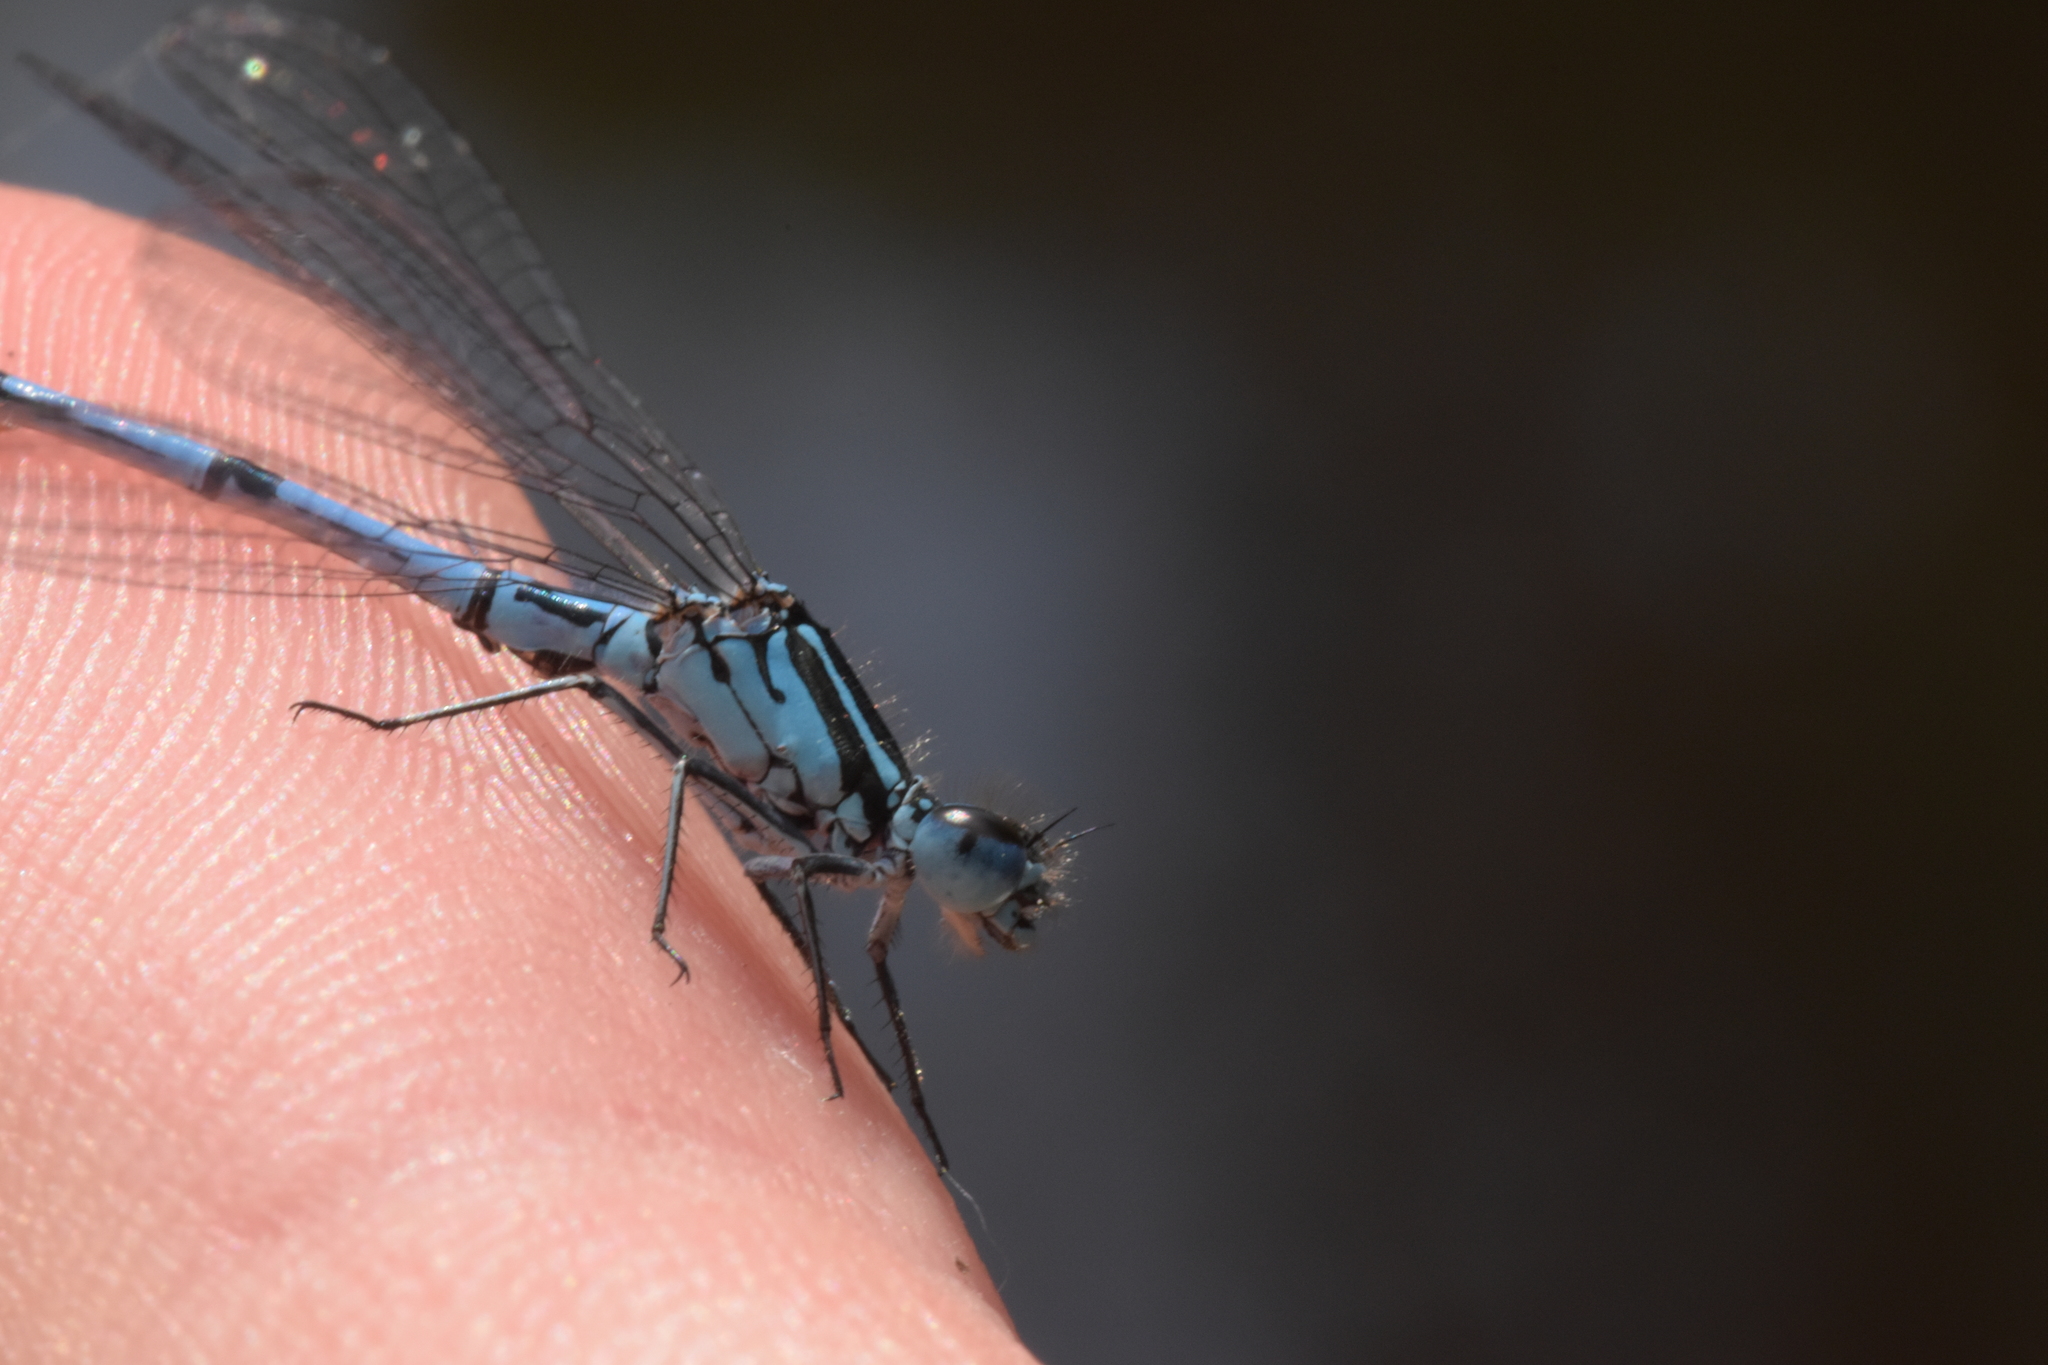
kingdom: Animalia
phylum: Arthropoda
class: Insecta
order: Odonata
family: Coenagrionidae
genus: Coenagrion
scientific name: Coenagrion puella
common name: Azure damselfly
